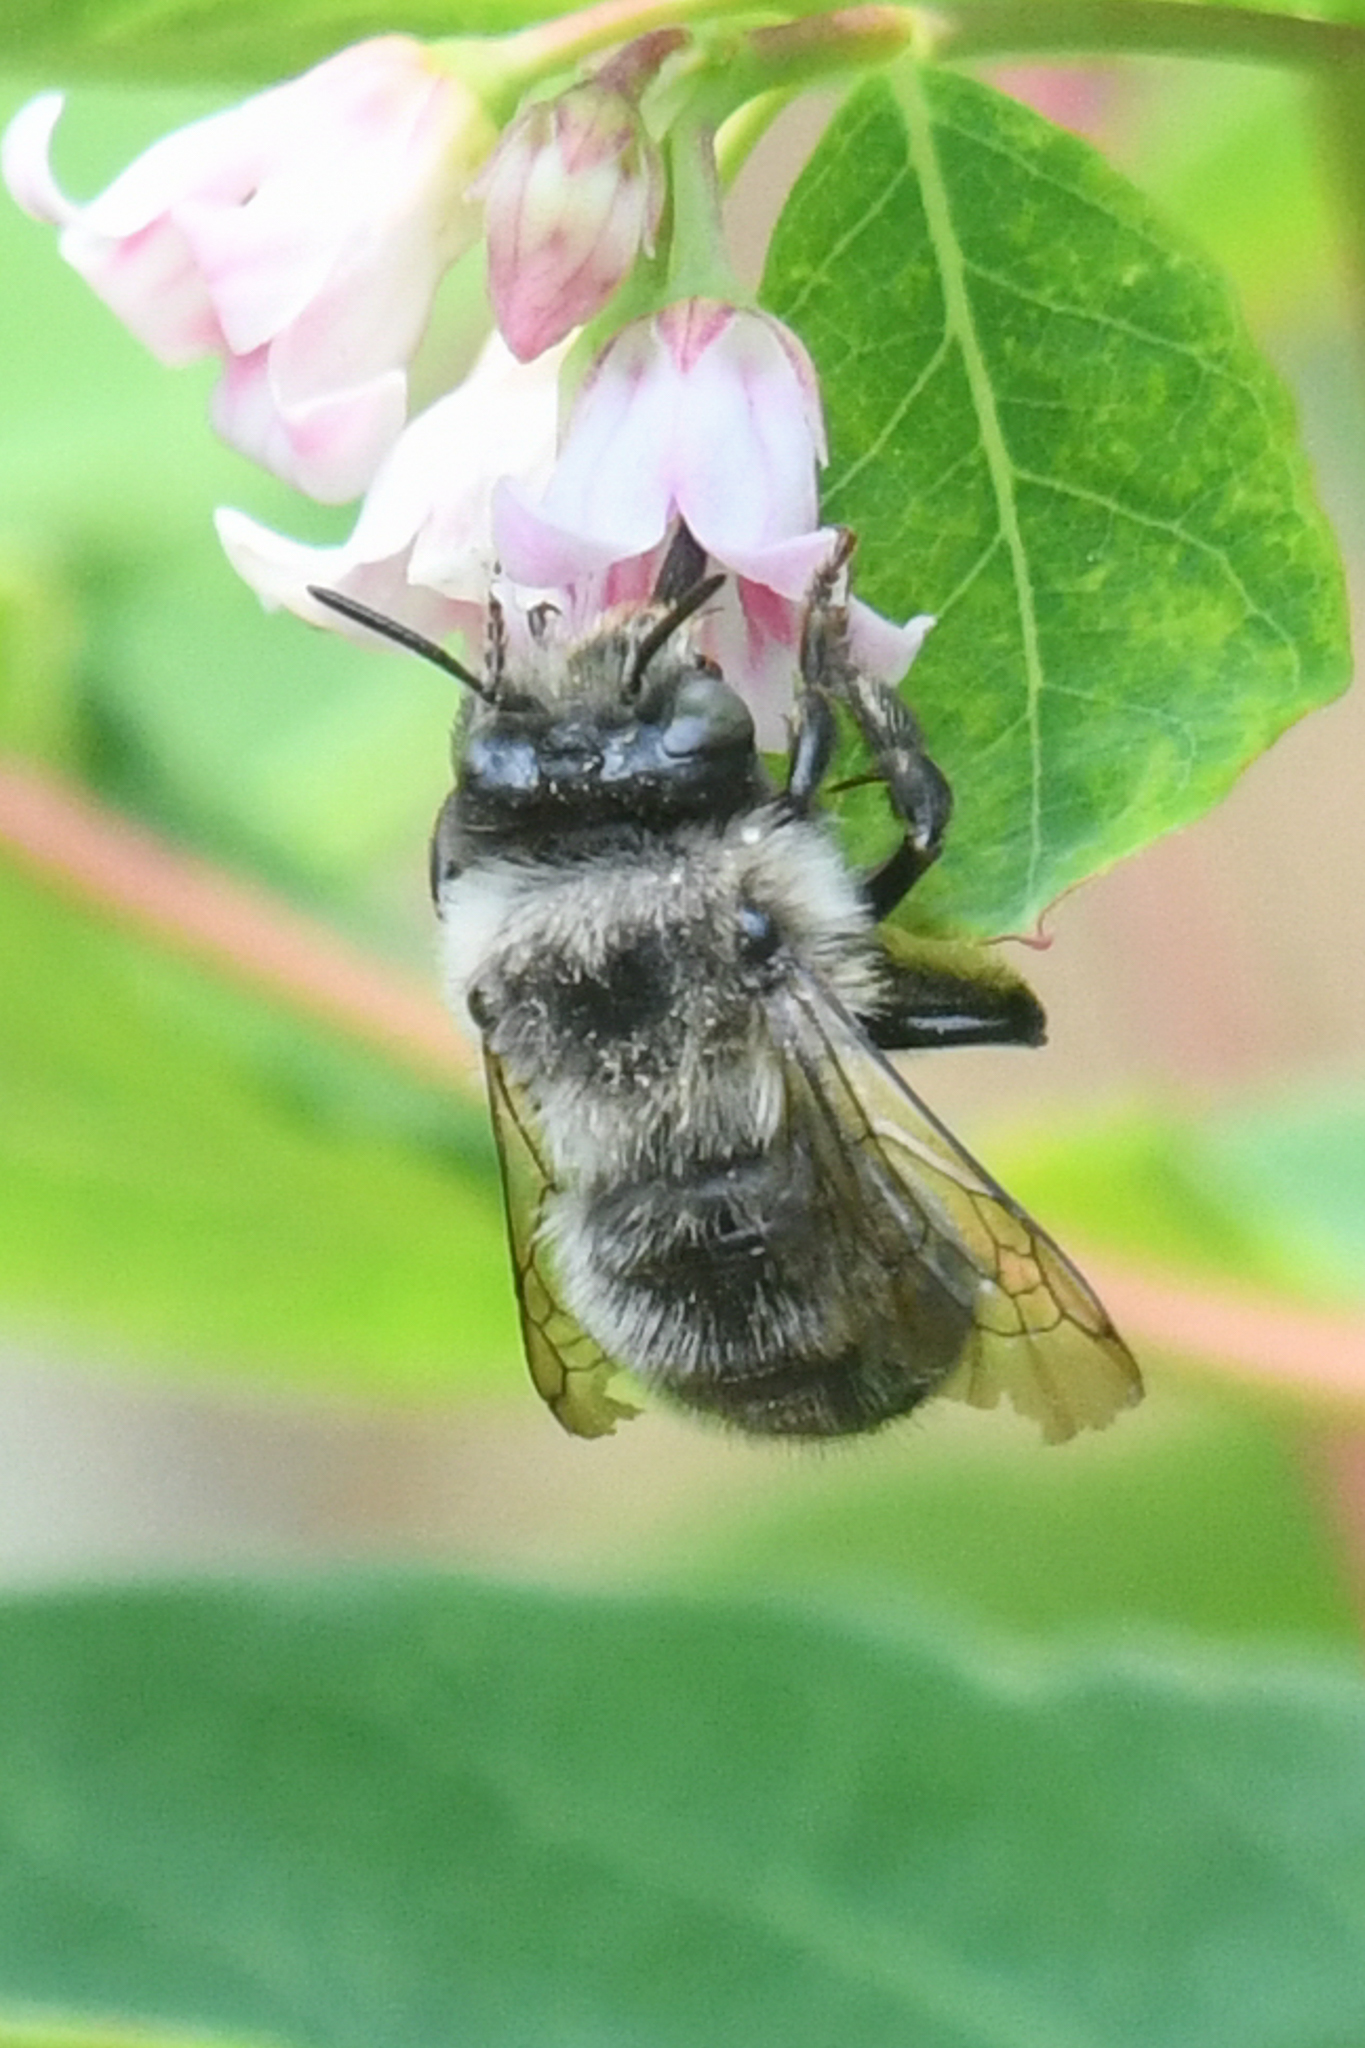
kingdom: Animalia
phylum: Arthropoda
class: Insecta
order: Hymenoptera
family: Apidae
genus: Anthophora
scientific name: Anthophora terminalis
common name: Orange-tipped wood-digger bee
